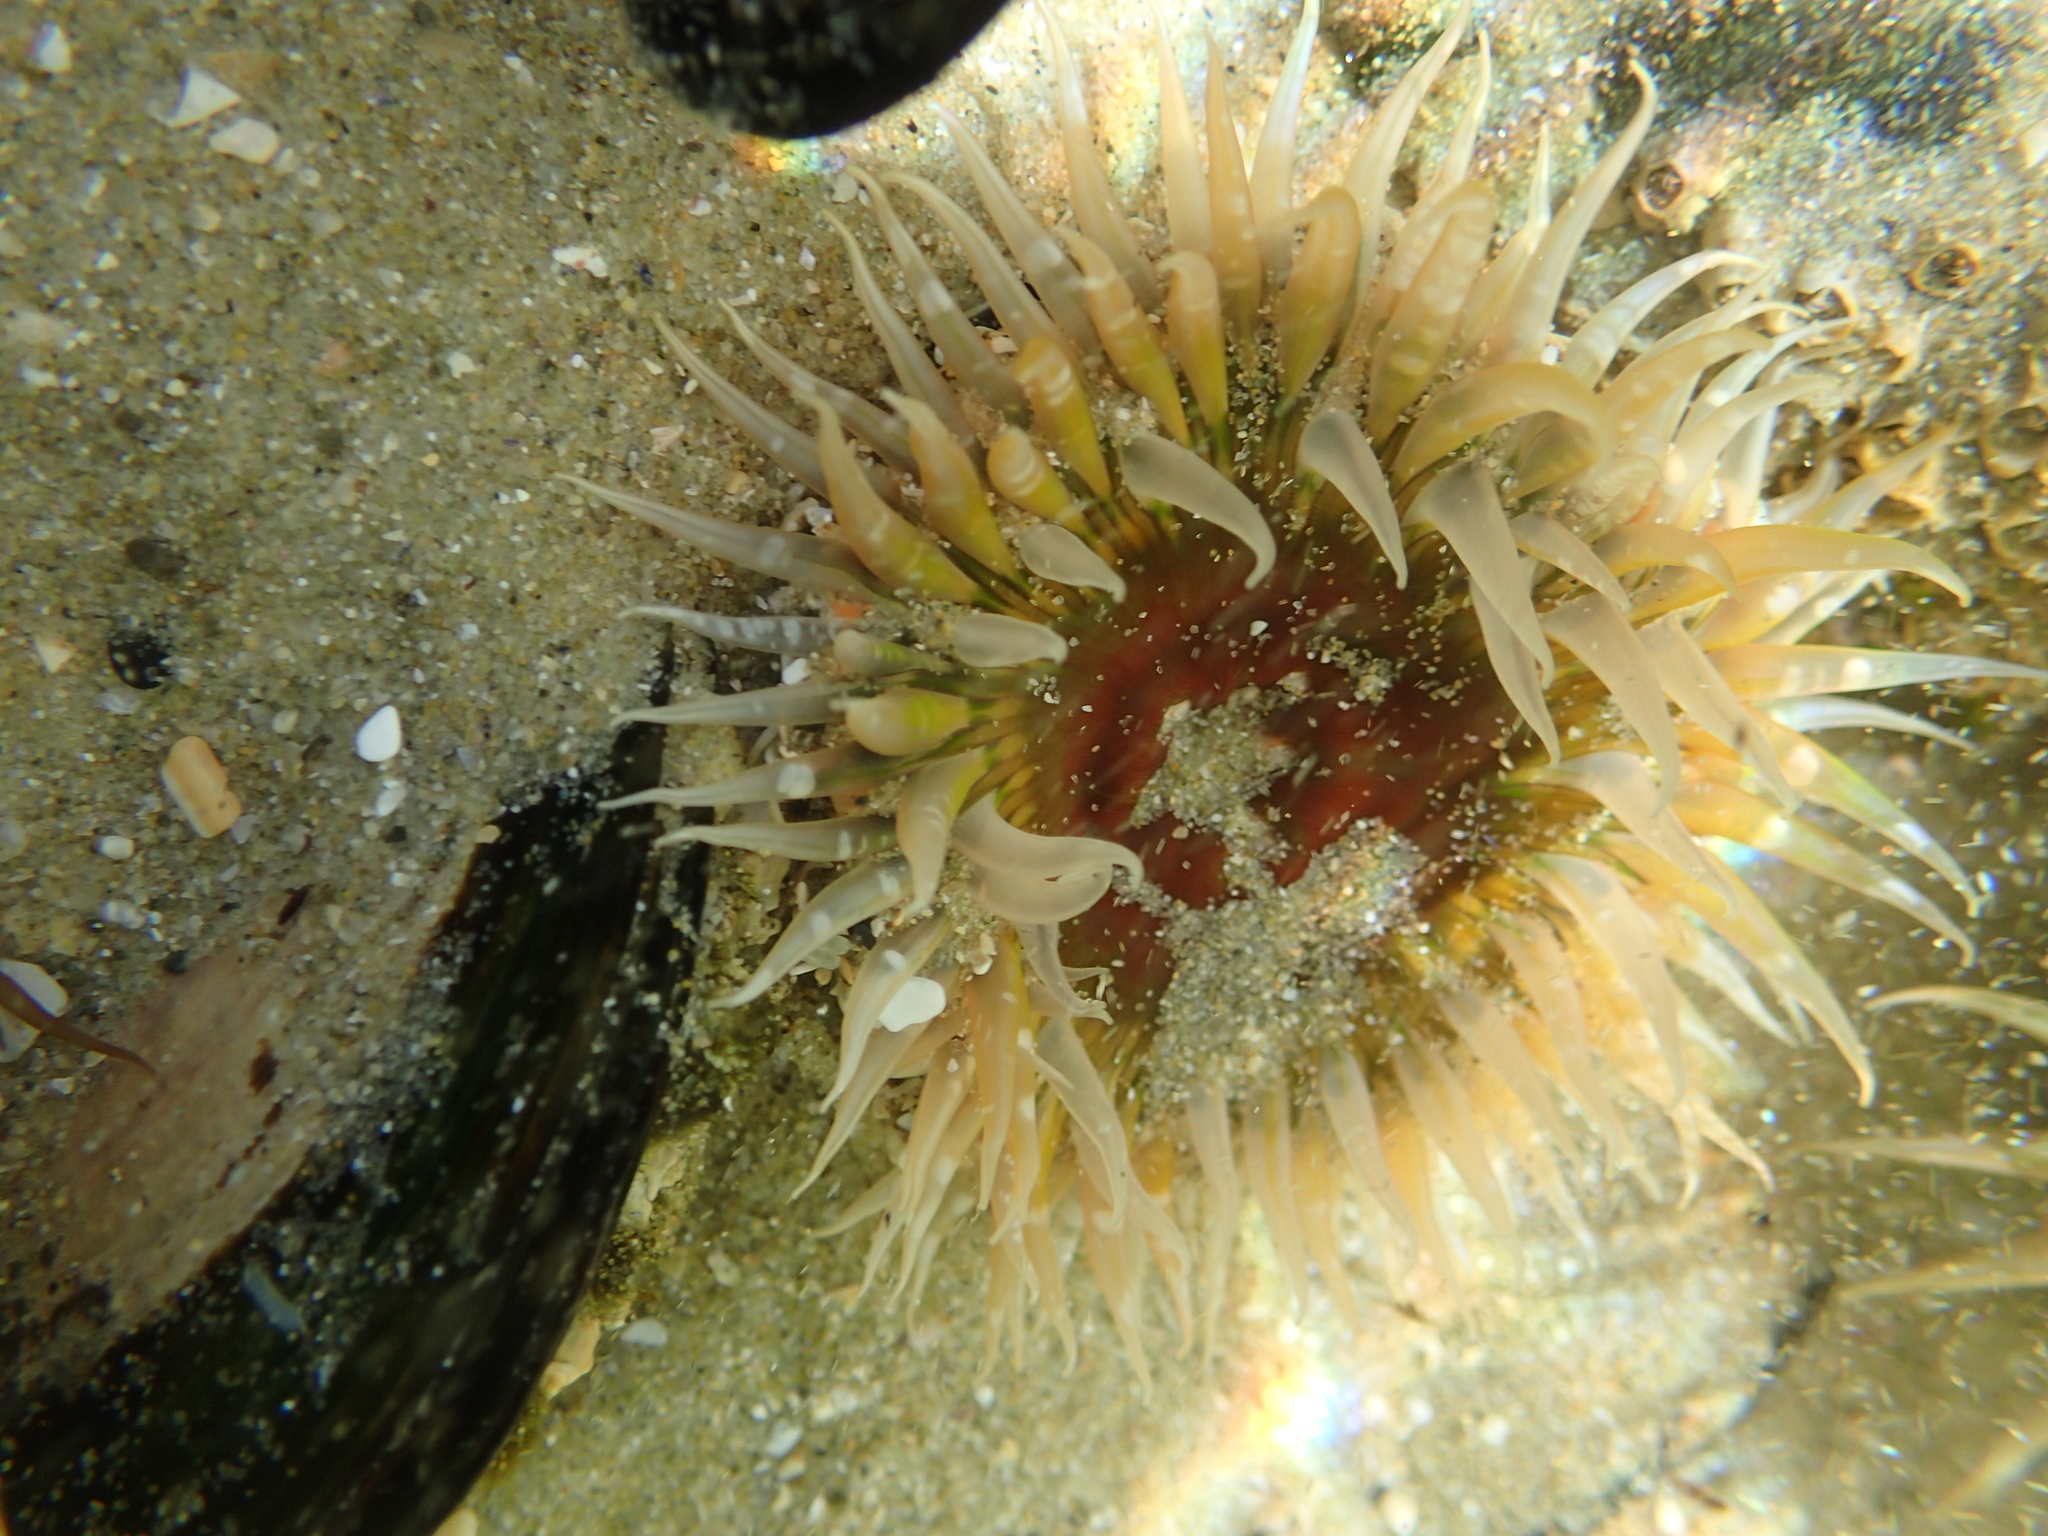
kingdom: Animalia
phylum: Cnidaria
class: Anthozoa
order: Actiniaria
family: Actiniidae
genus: Oulactis
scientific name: Oulactis muscosa
